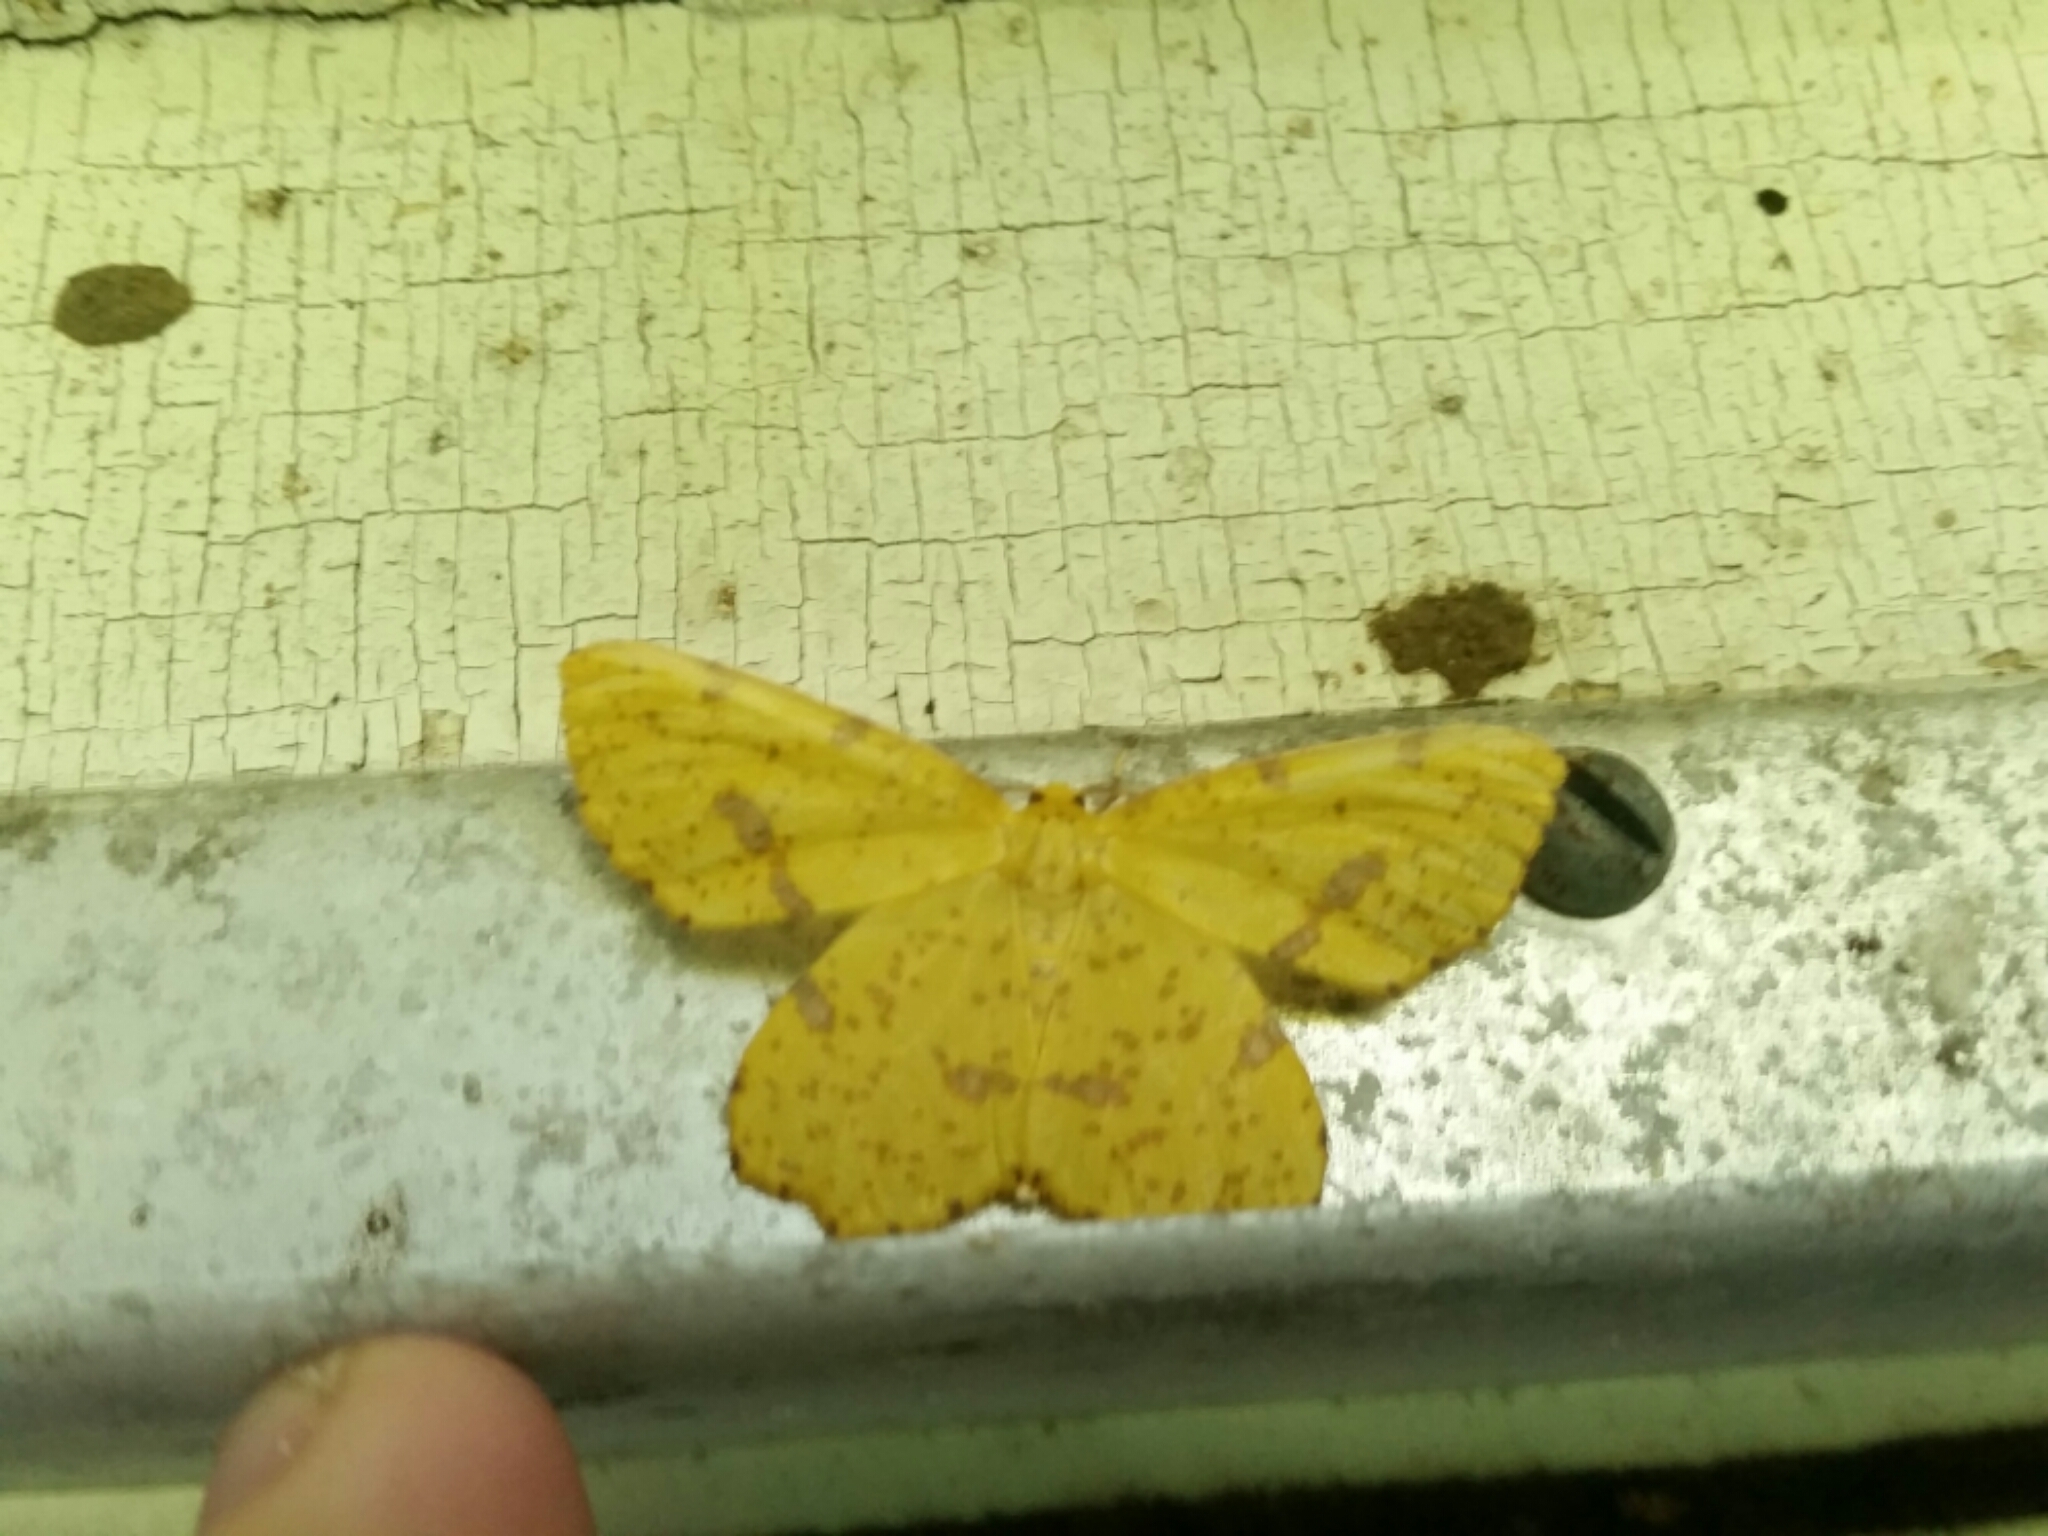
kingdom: Animalia
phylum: Arthropoda
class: Insecta
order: Lepidoptera
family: Geometridae
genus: Xanthotype
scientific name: Xanthotype
